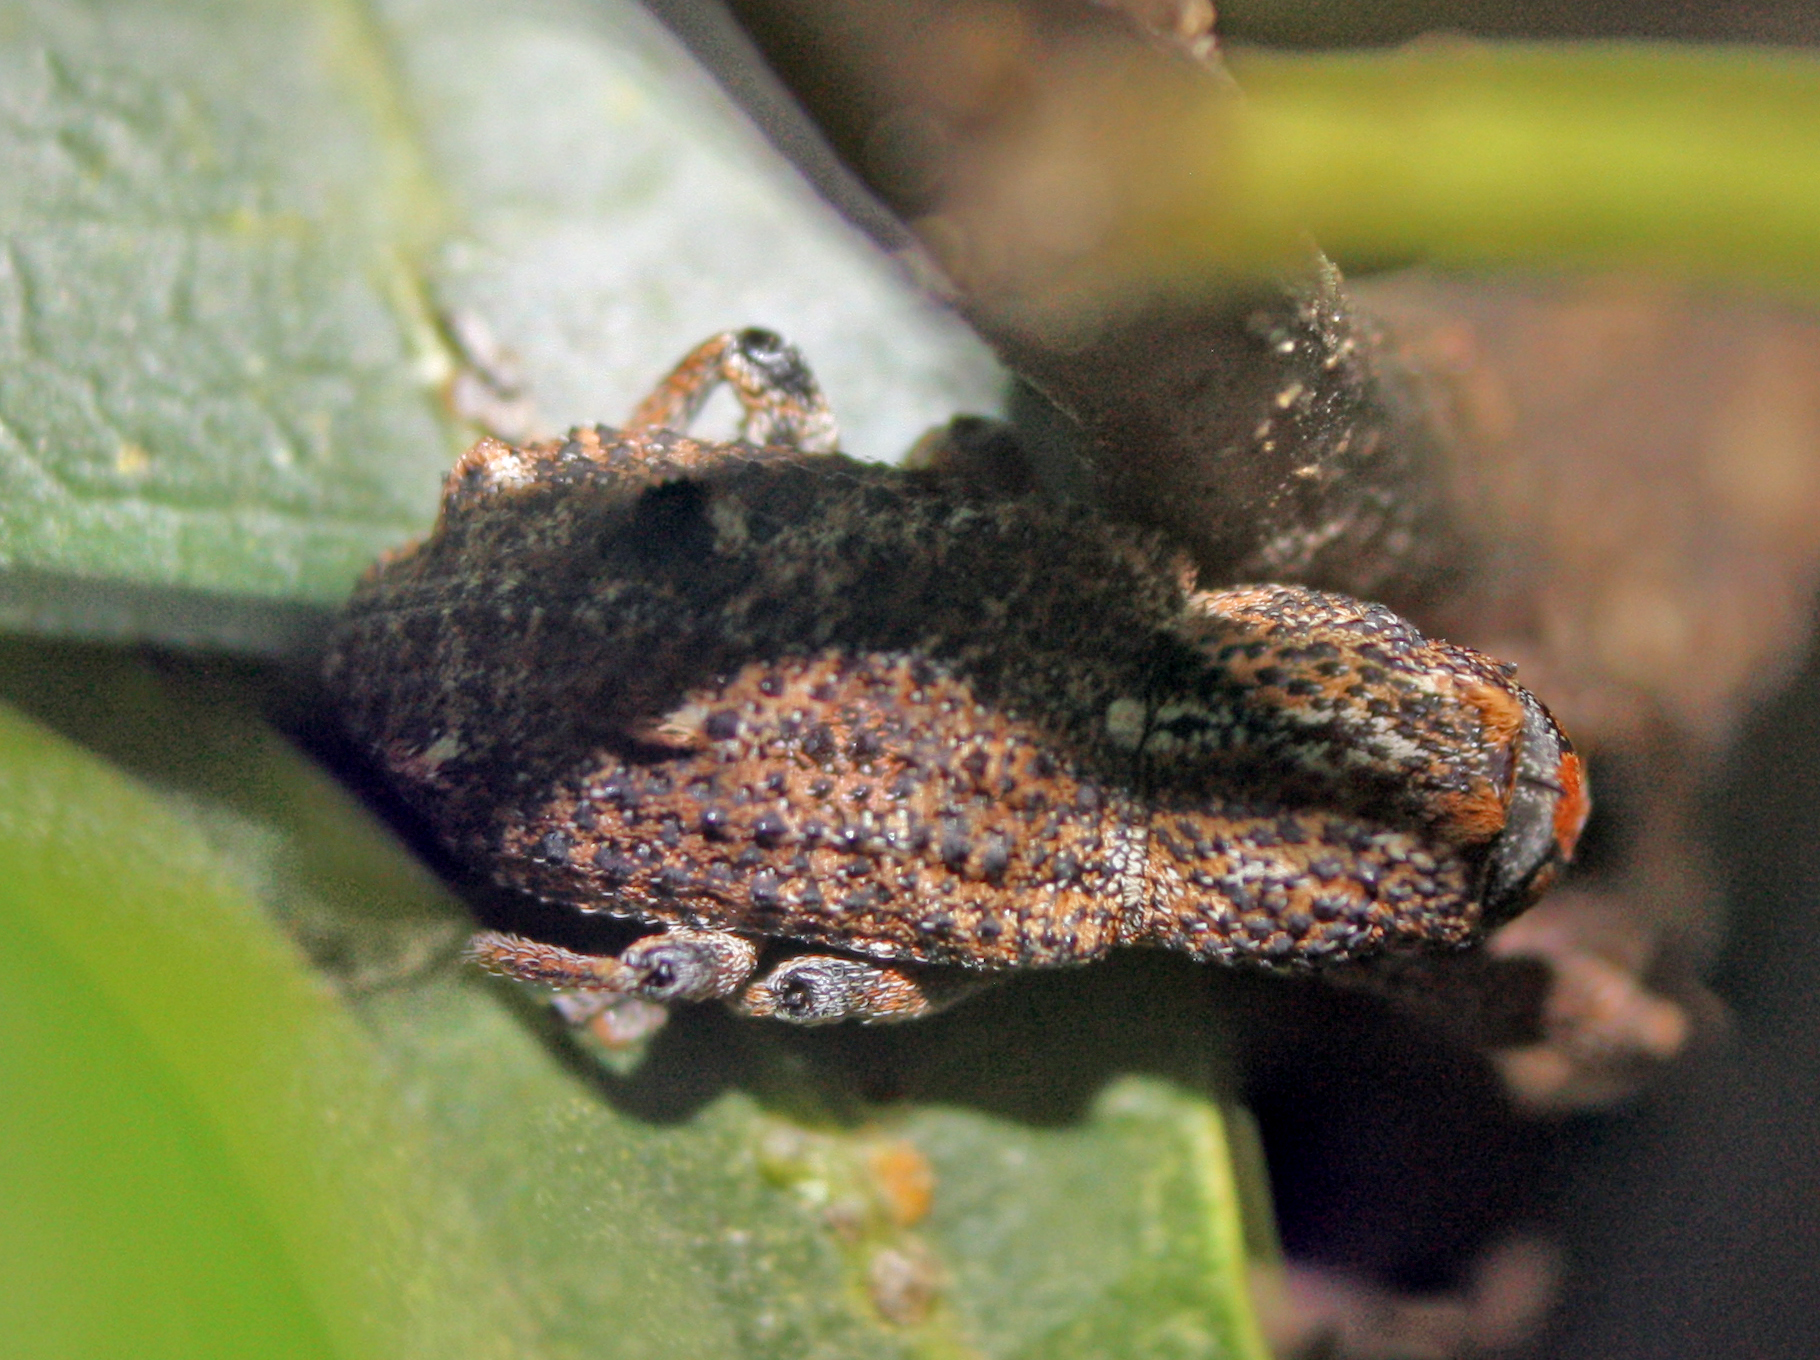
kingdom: Animalia
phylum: Arthropoda
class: Insecta
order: Coleoptera
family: Curculionidae
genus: Orthorhinus
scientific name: Orthorhinus cylindrirostris
